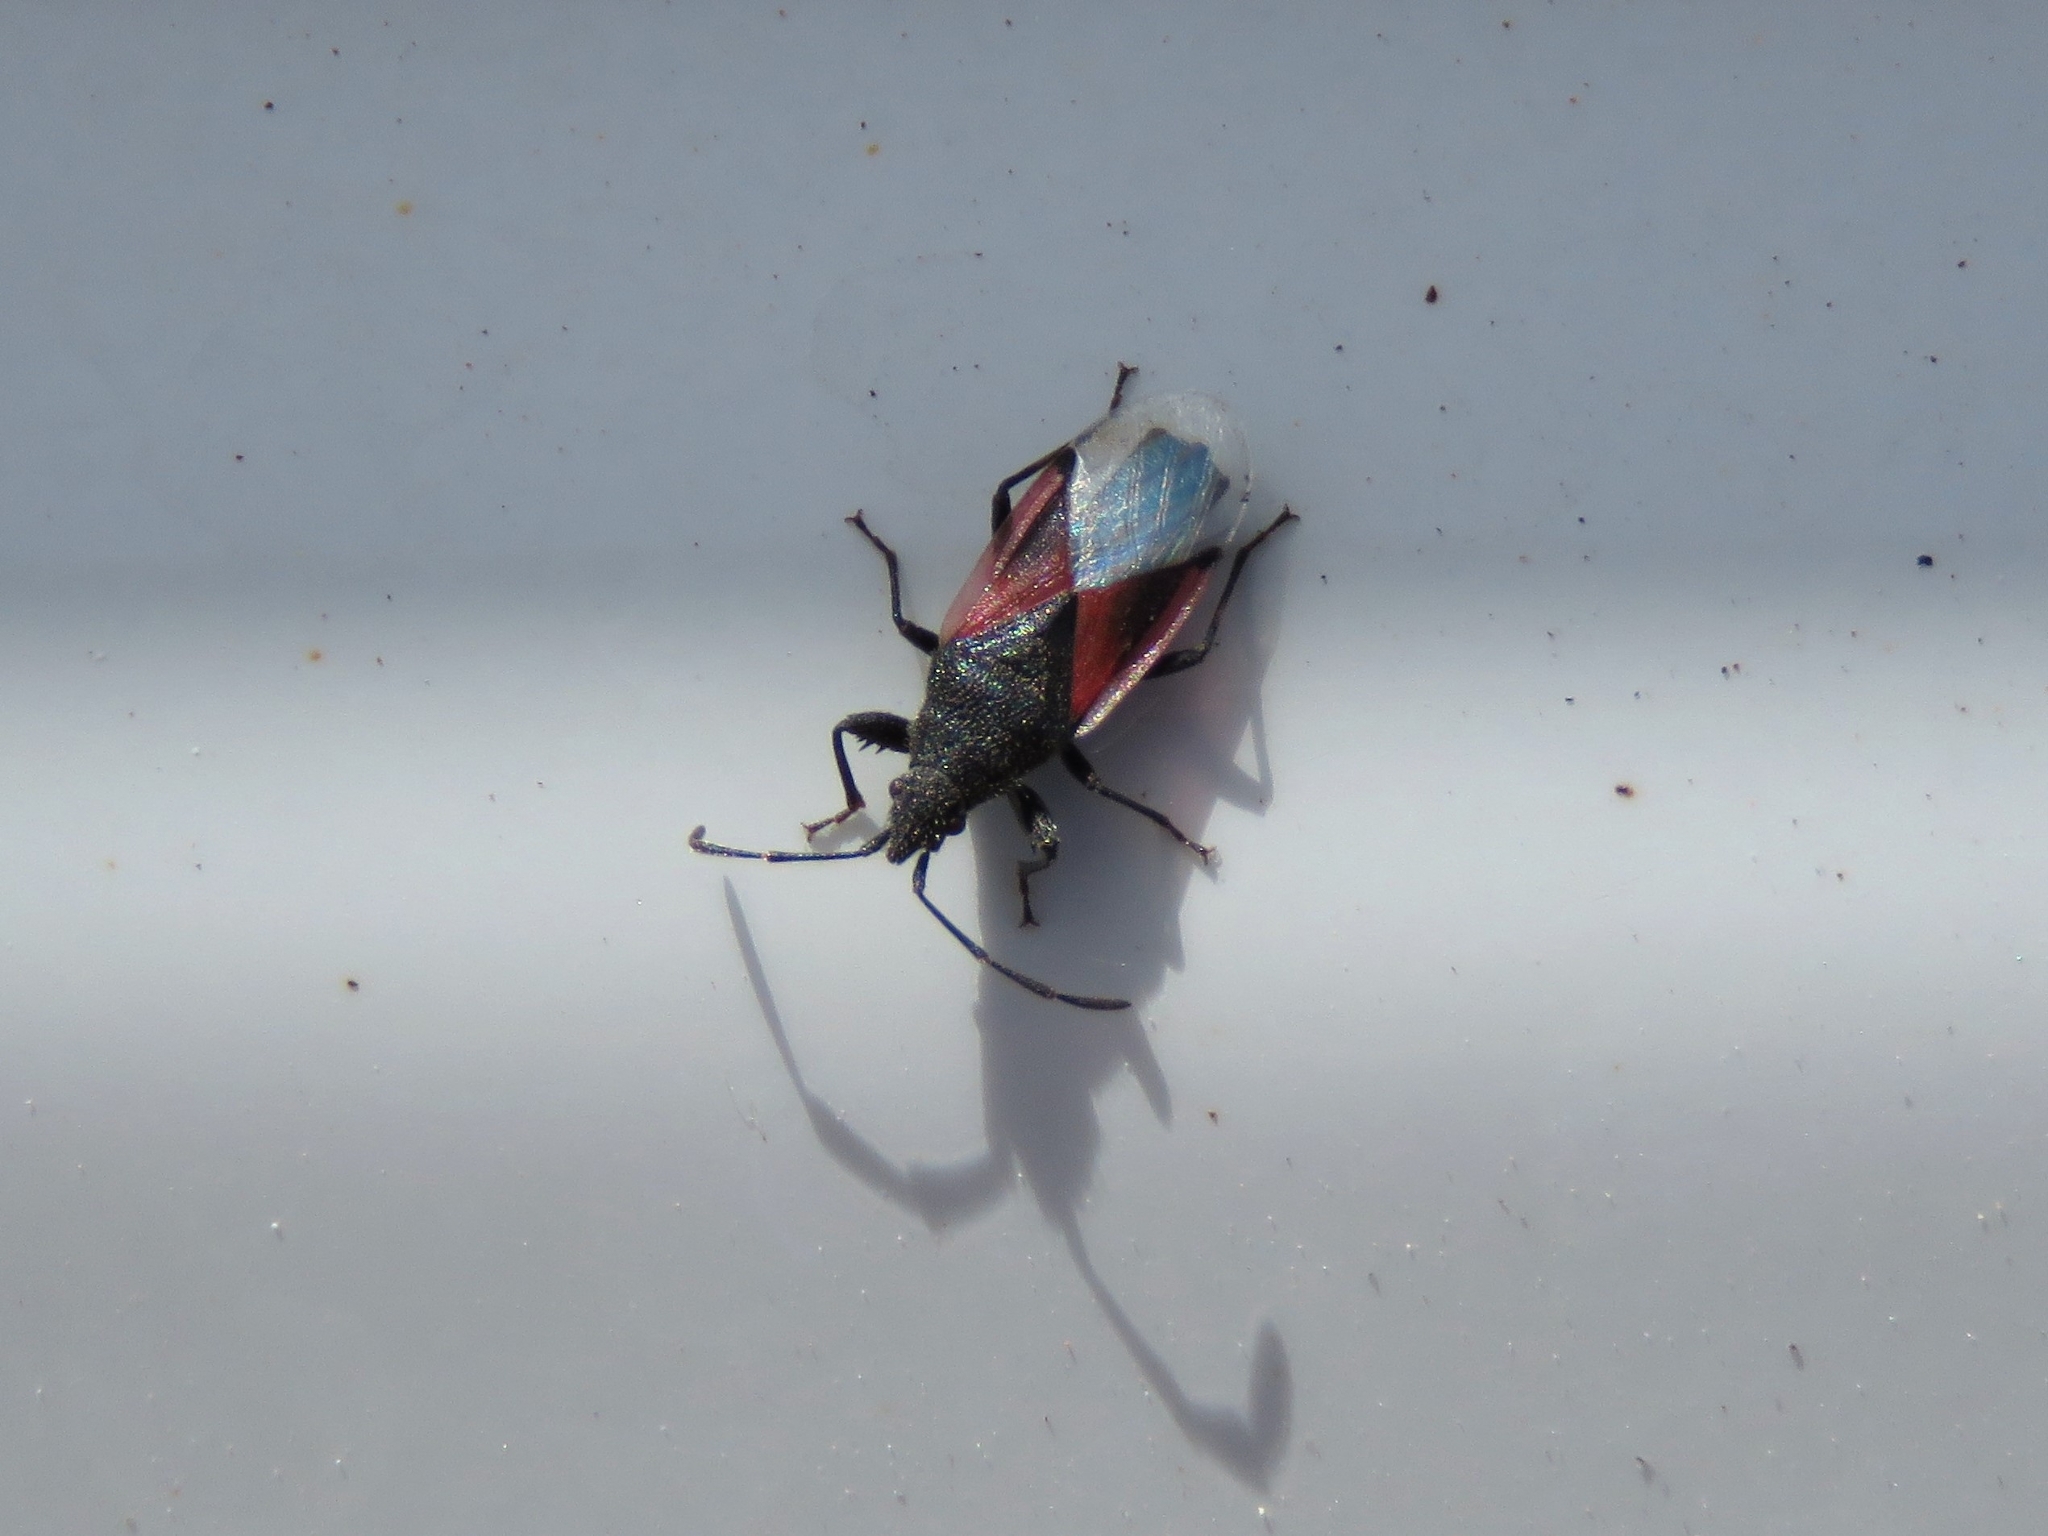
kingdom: Animalia
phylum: Arthropoda
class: Insecta
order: Hemiptera
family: Oxycarenidae
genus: Oxycarenus
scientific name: Oxycarenus lavaterae
